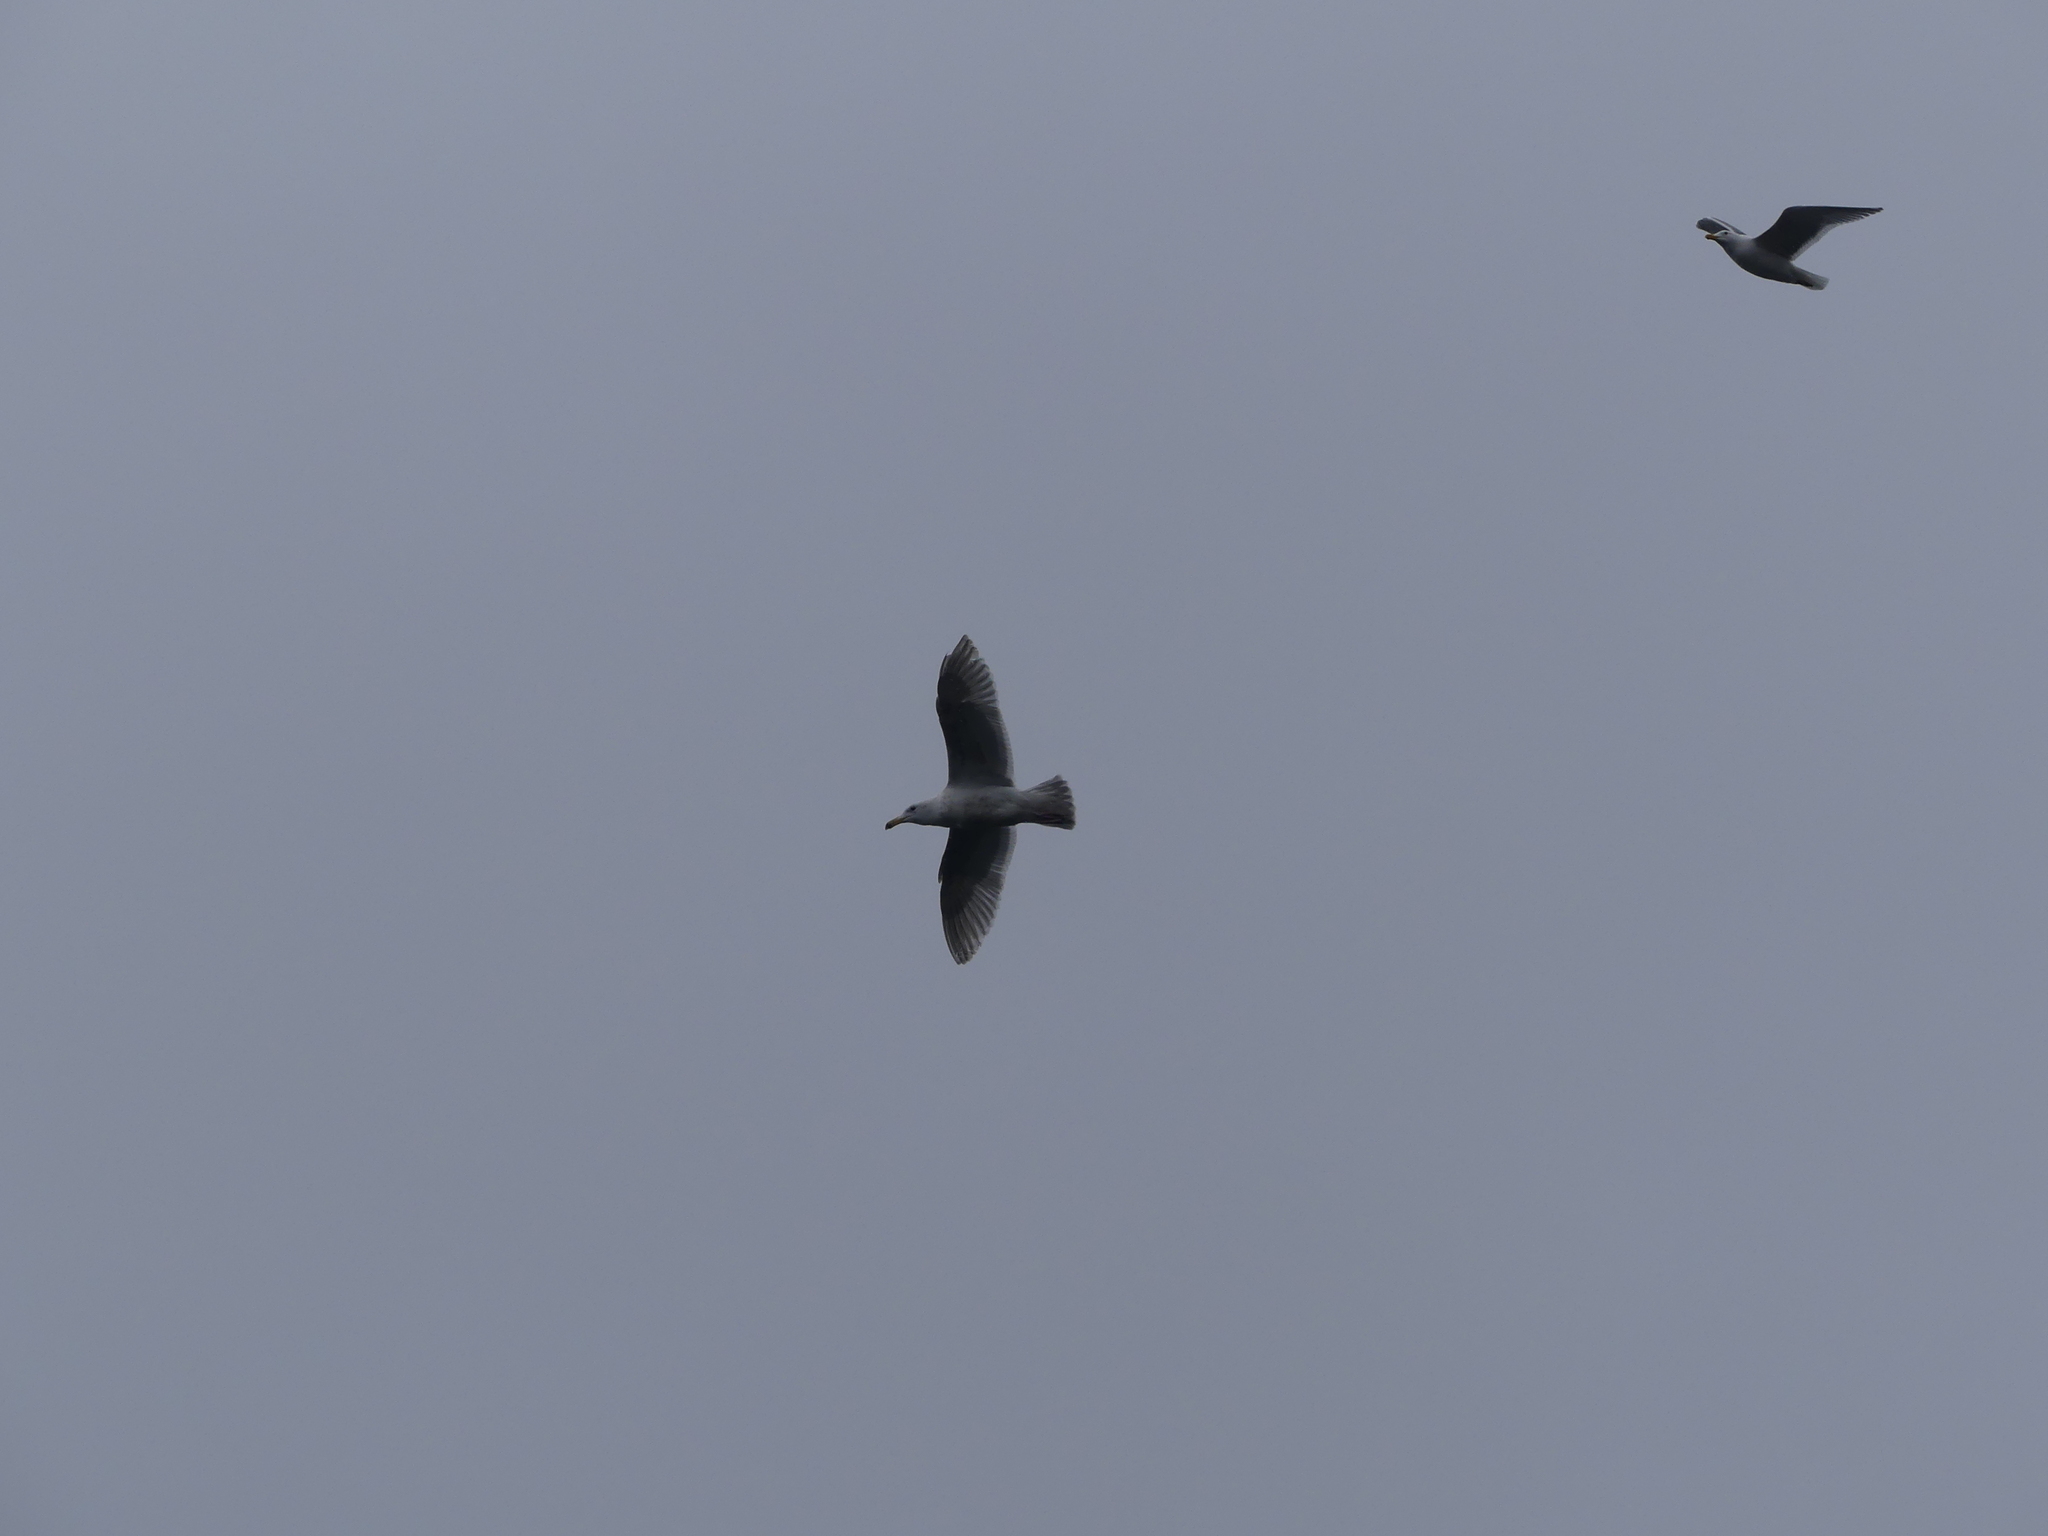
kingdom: Animalia
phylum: Chordata
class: Aves
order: Charadriiformes
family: Laridae
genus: Larus
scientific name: Larus glaucescens
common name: Glaucous-winged gull
